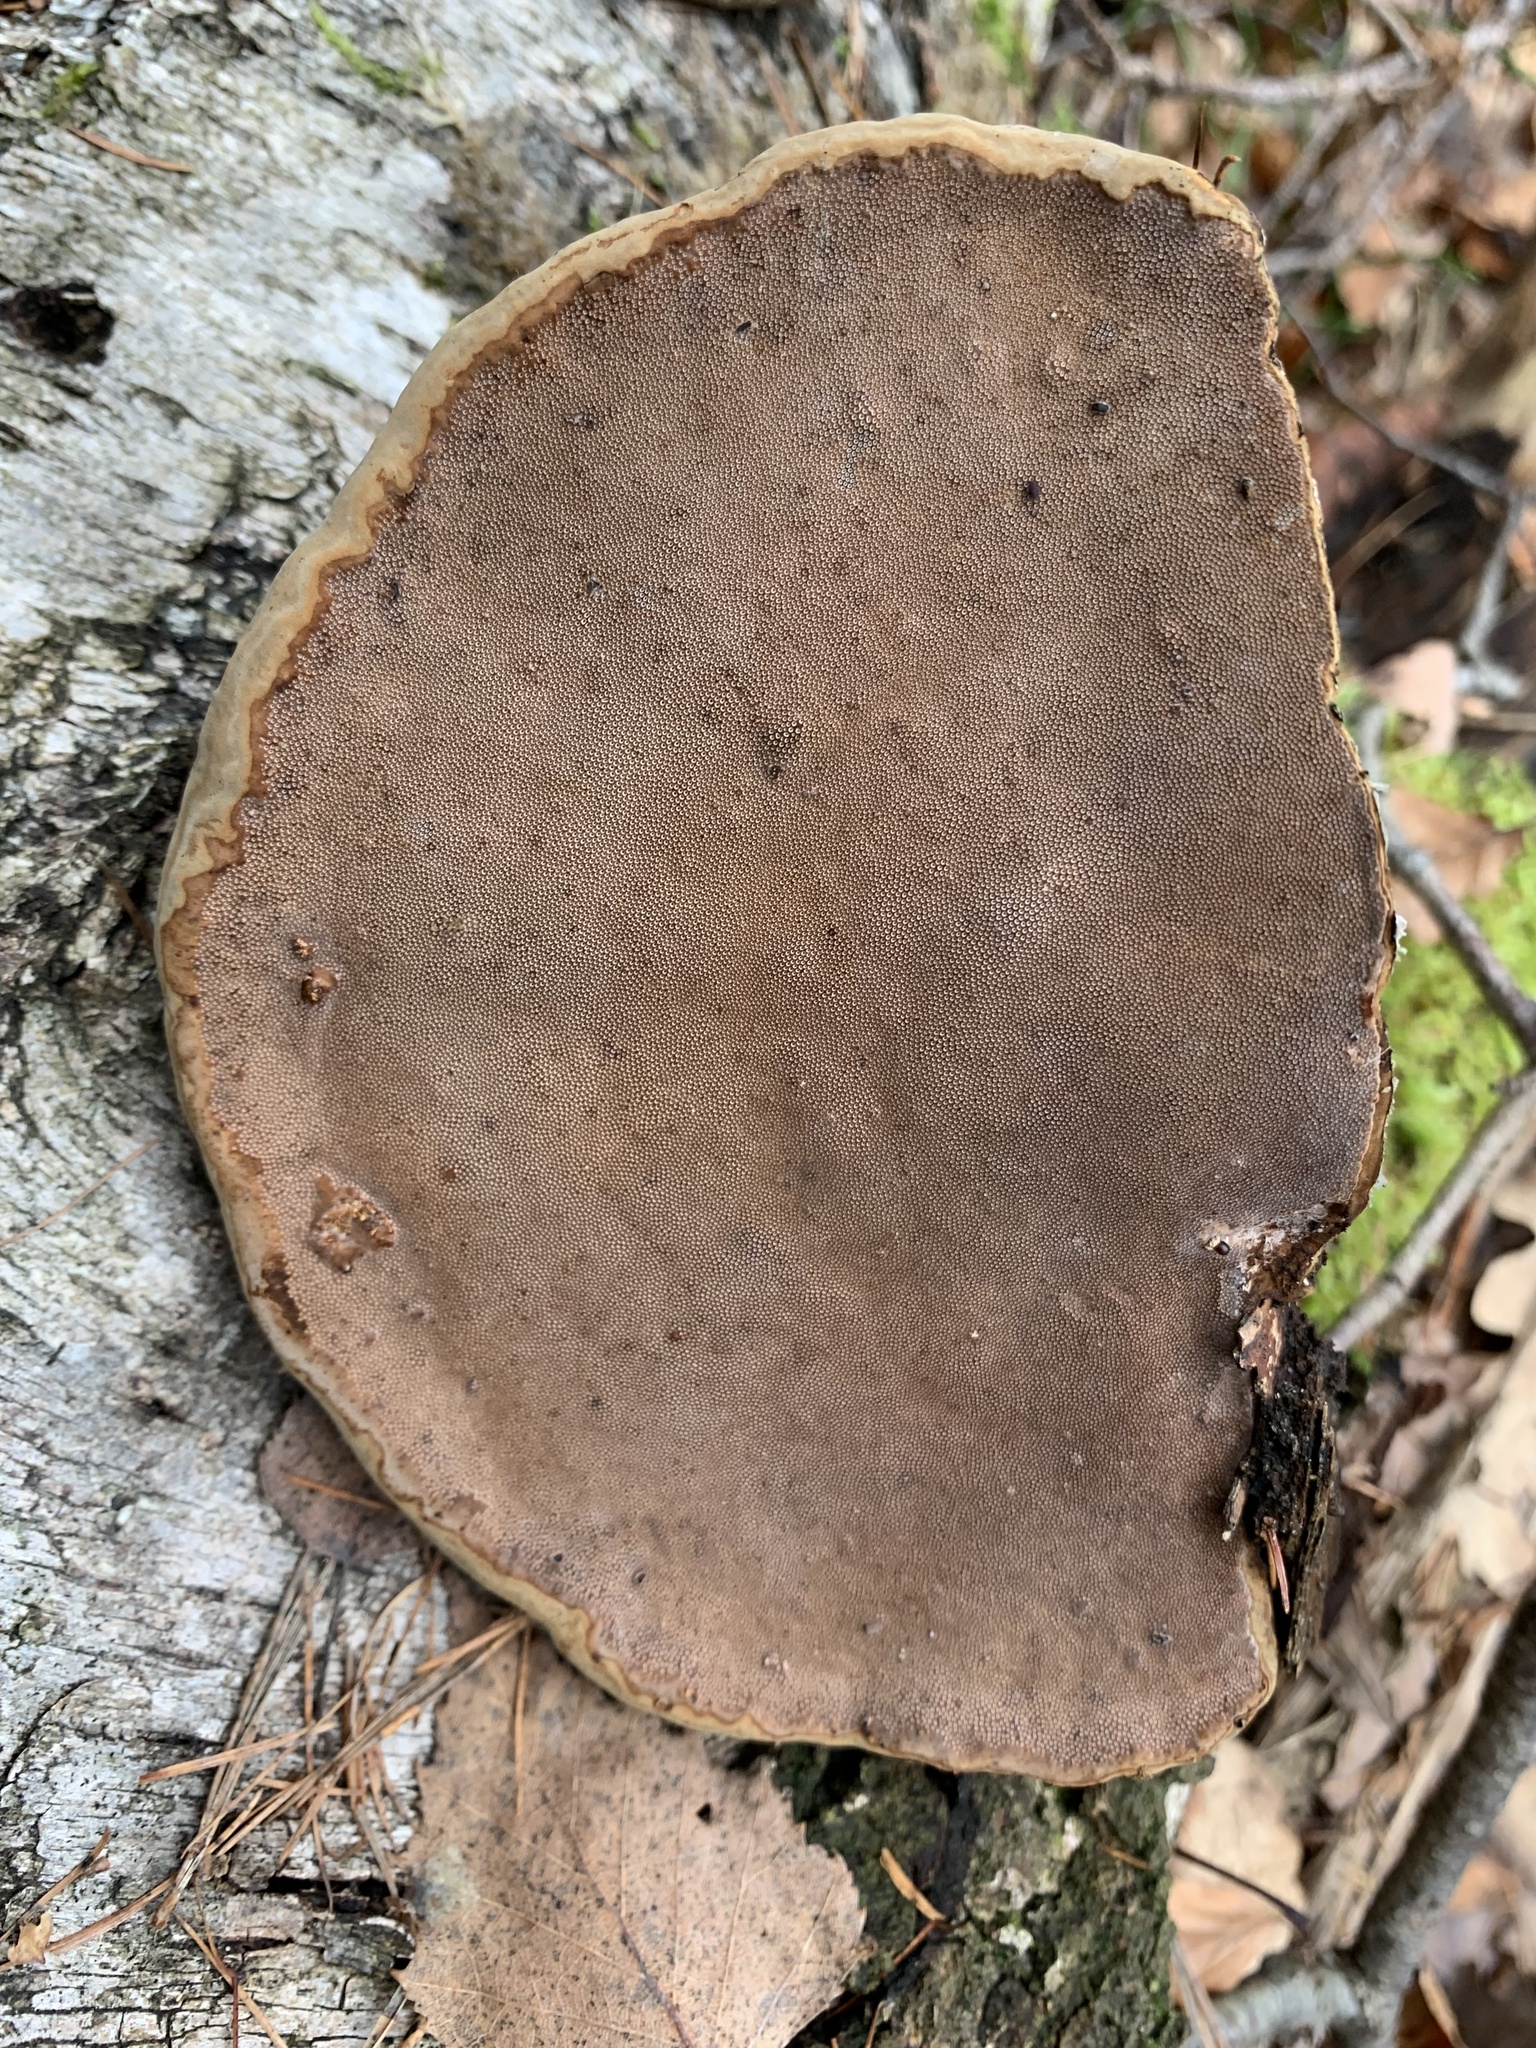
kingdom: Fungi
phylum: Basidiomycota
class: Agaricomycetes
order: Polyporales
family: Polyporaceae
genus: Fomes
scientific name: Fomes fomentarius
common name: Hoof fungus
